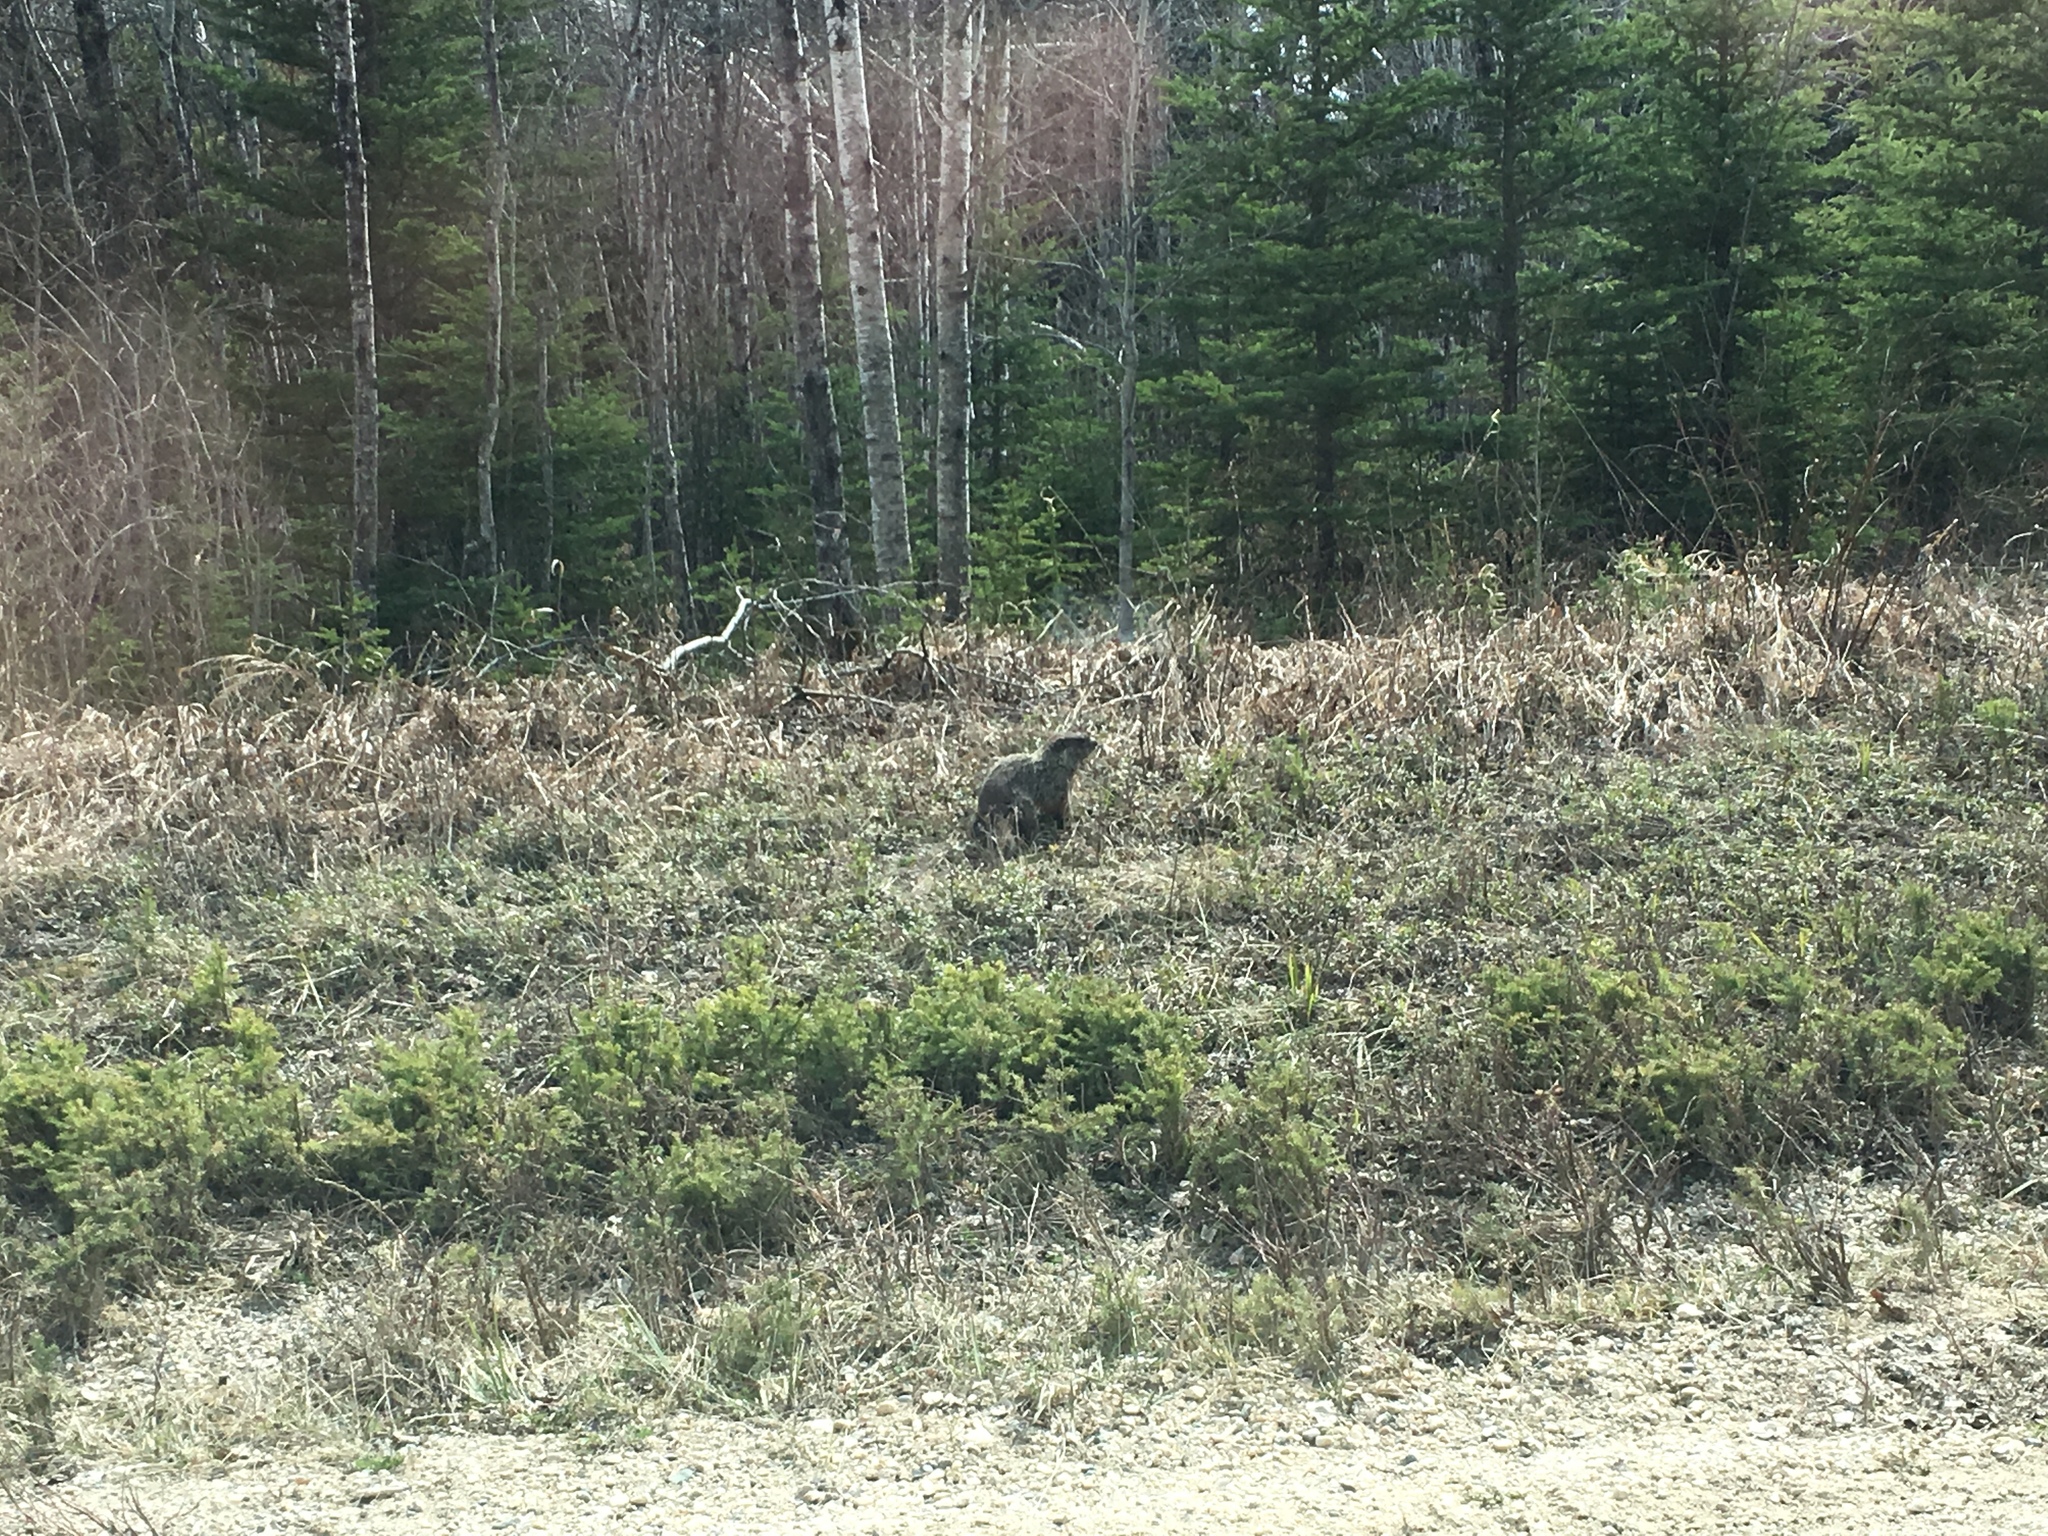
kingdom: Animalia
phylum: Chordata
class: Mammalia
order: Rodentia
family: Sciuridae
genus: Marmota
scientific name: Marmota monax
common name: Groundhog
